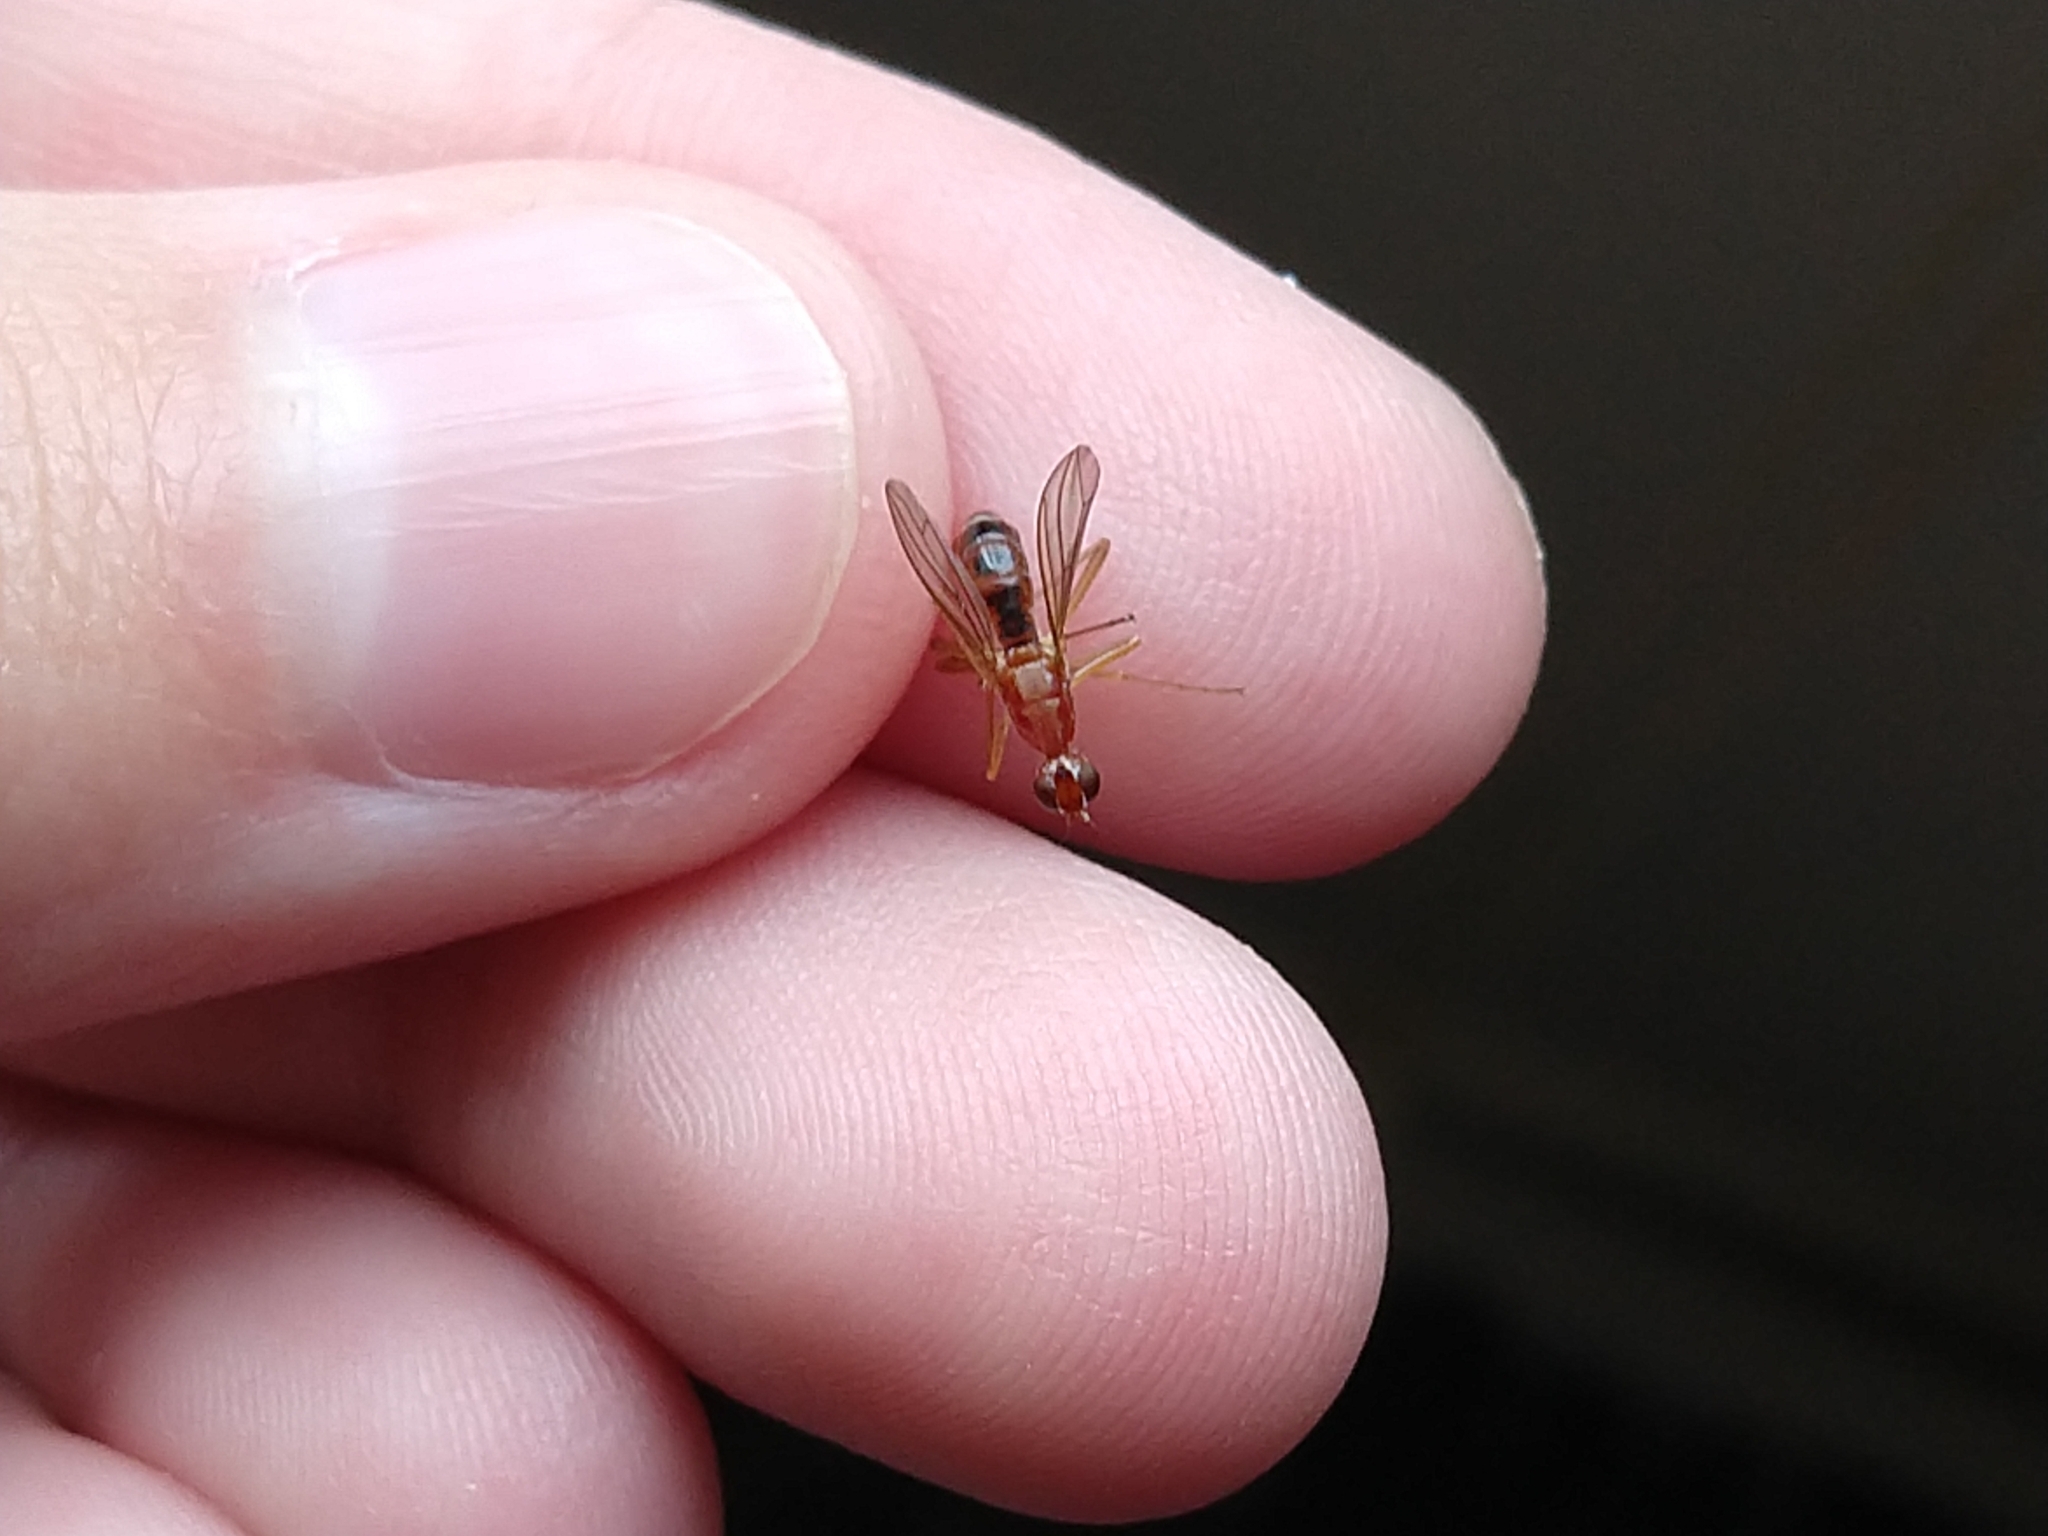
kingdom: Animalia
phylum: Arthropoda
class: Insecta
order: Diptera
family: Micropezidae
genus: Compsobata
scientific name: Compsobata univitta
